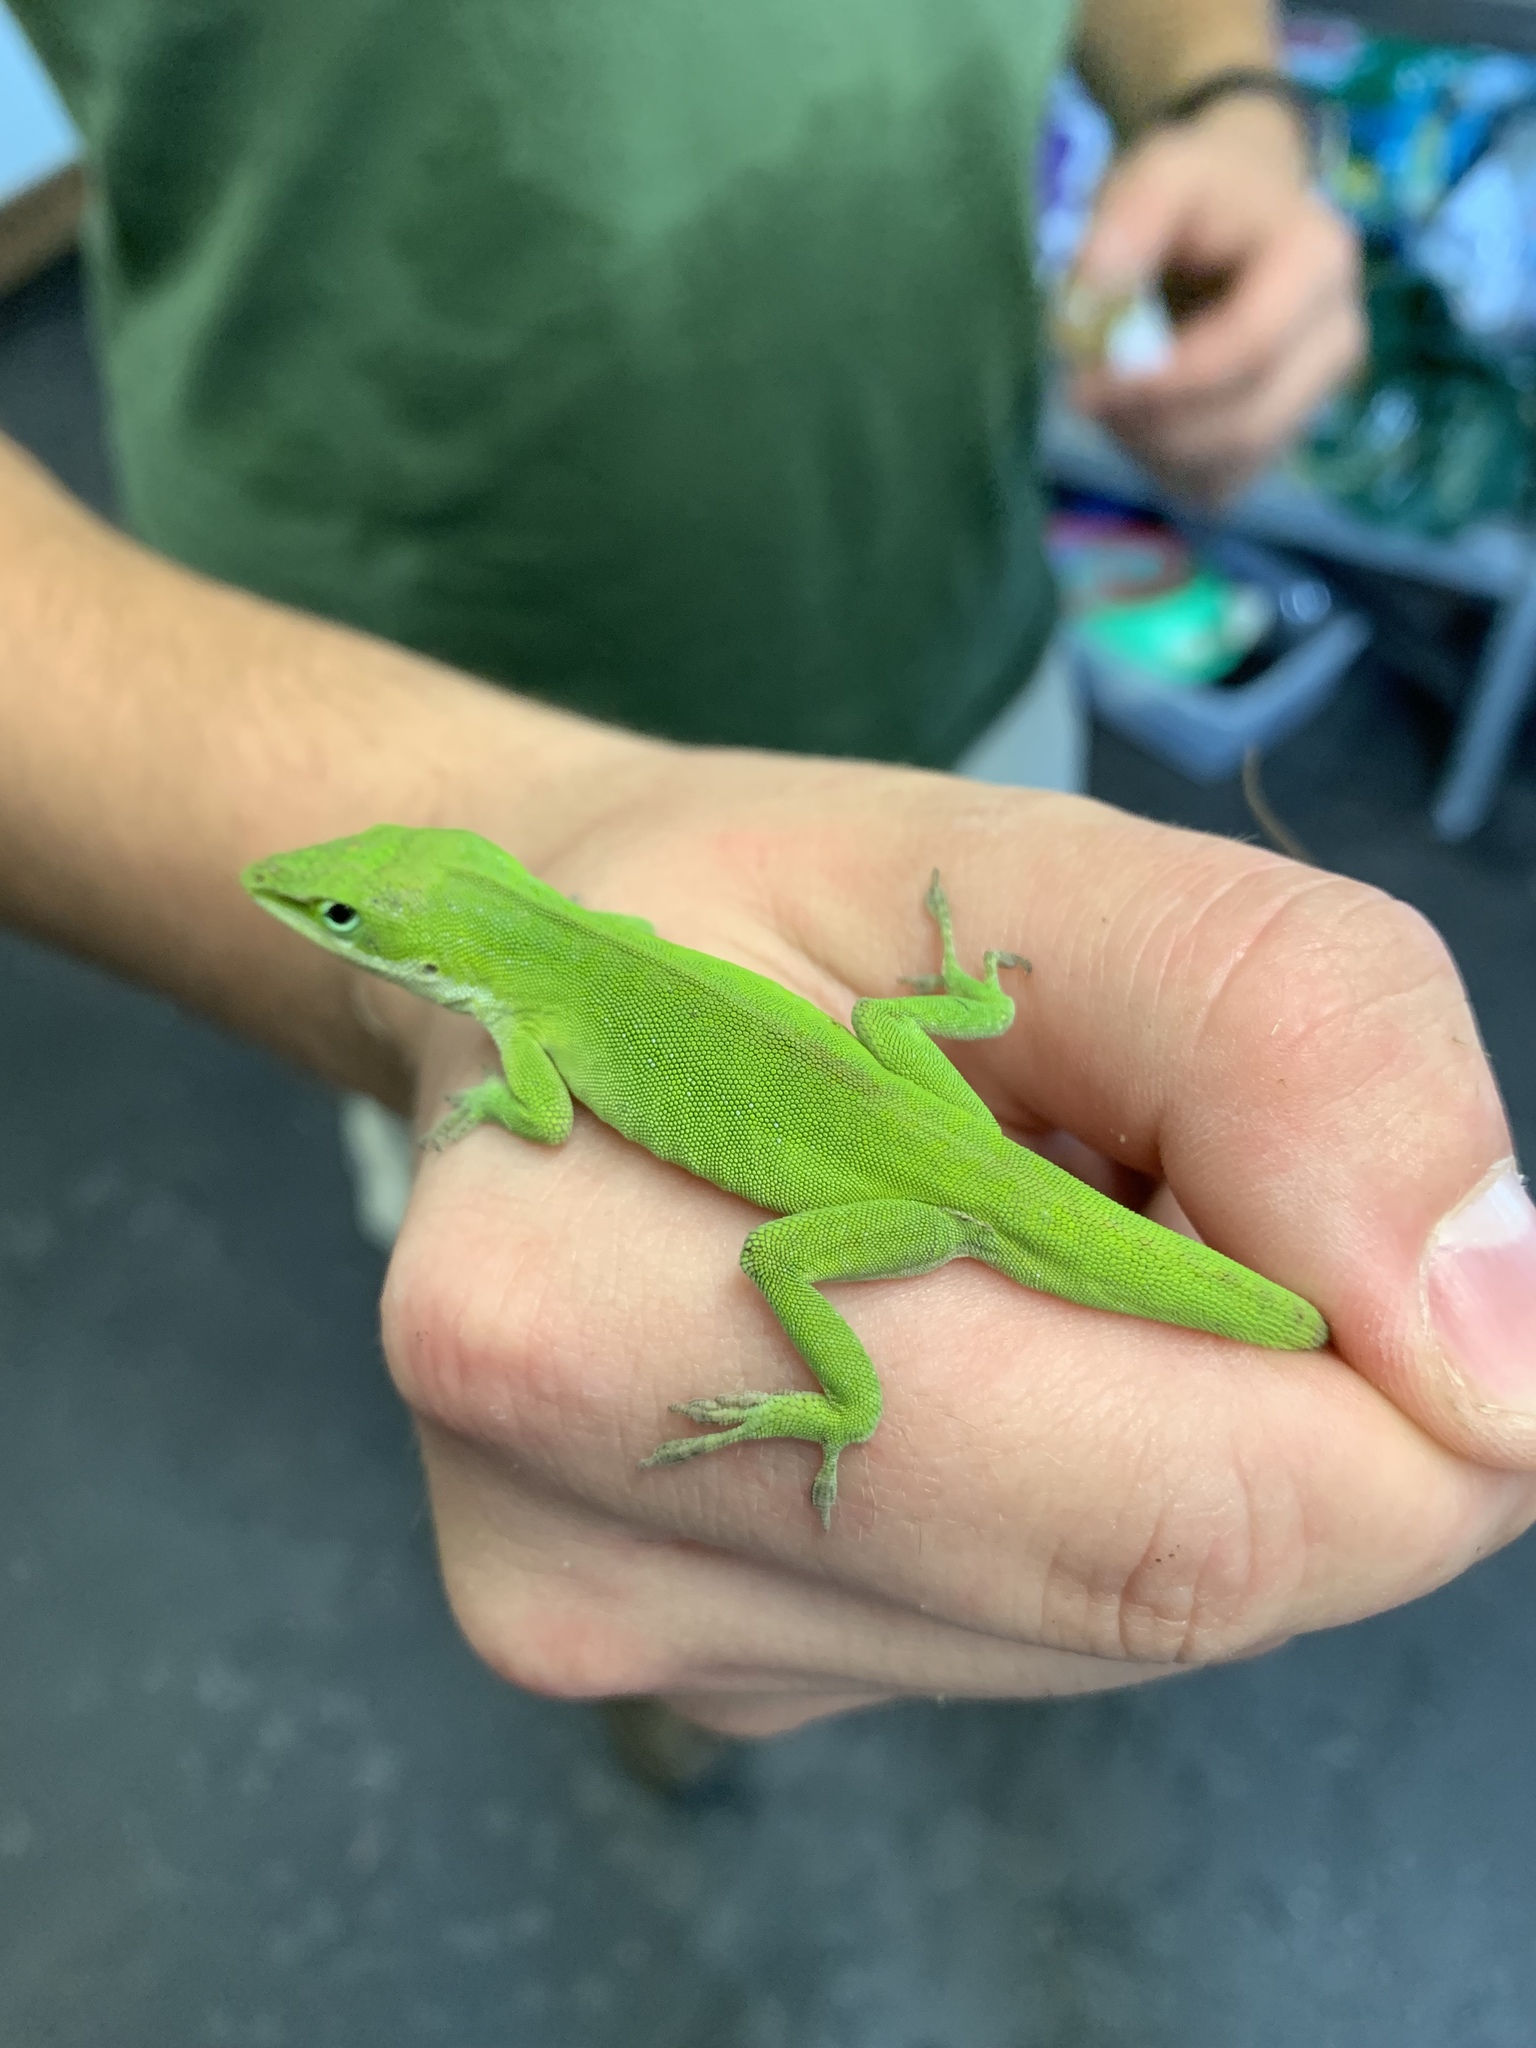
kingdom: Animalia
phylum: Chordata
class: Squamata
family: Dactyloidae
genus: Anolis
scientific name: Anolis carolinensis
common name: Green anole
